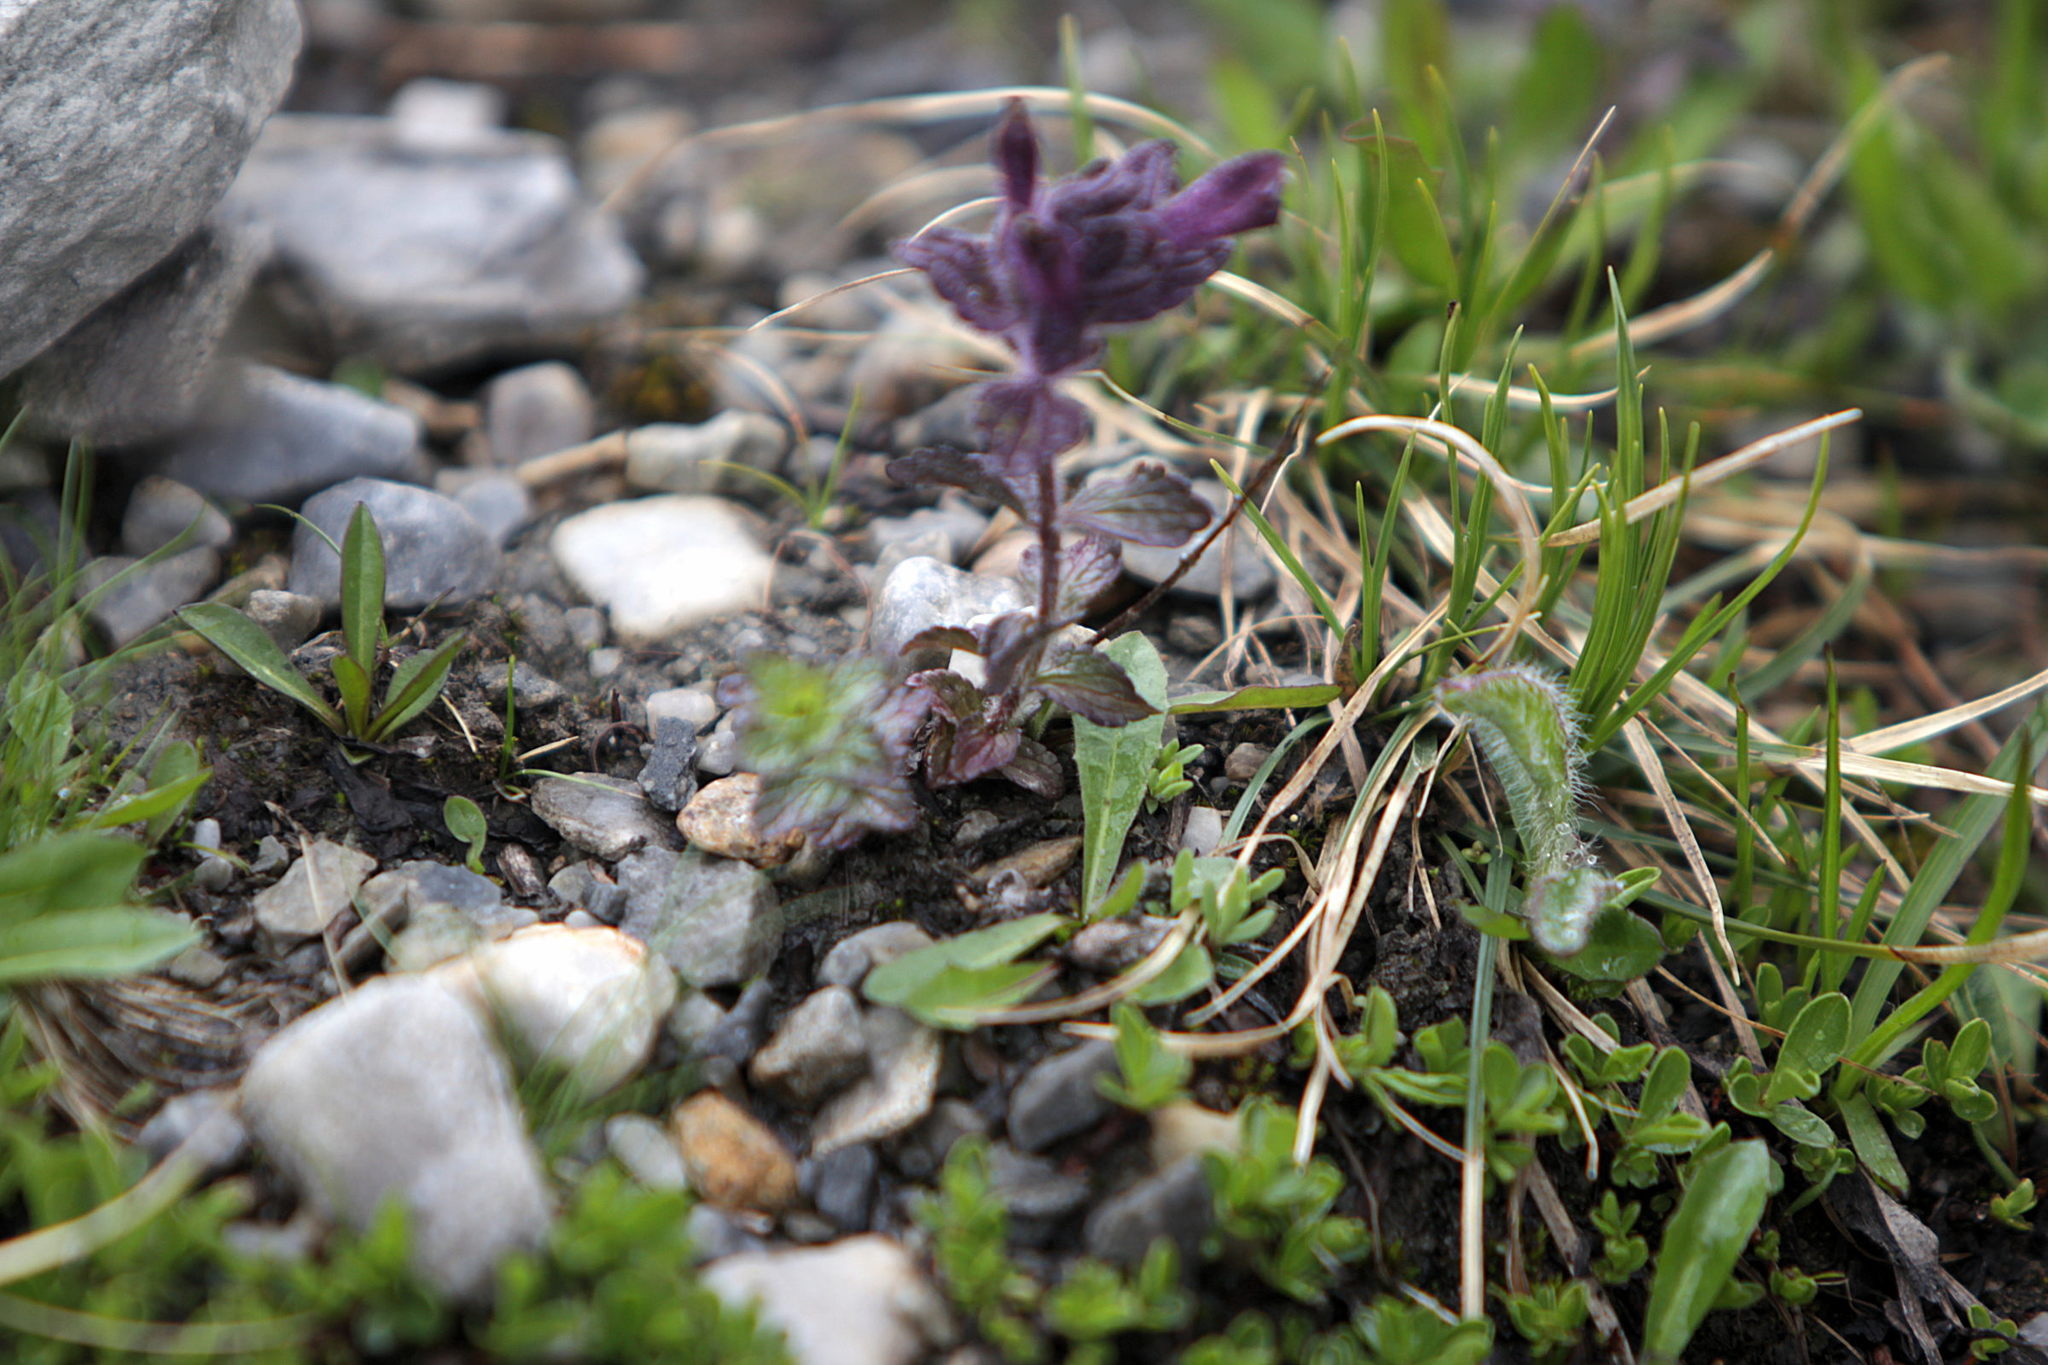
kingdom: Plantae
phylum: Tracheophyta
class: Magnoliopsida
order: Lamiales
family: Orobanchaceae
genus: Bartsia
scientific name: Bartsia alpina
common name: Alpine bartsia
